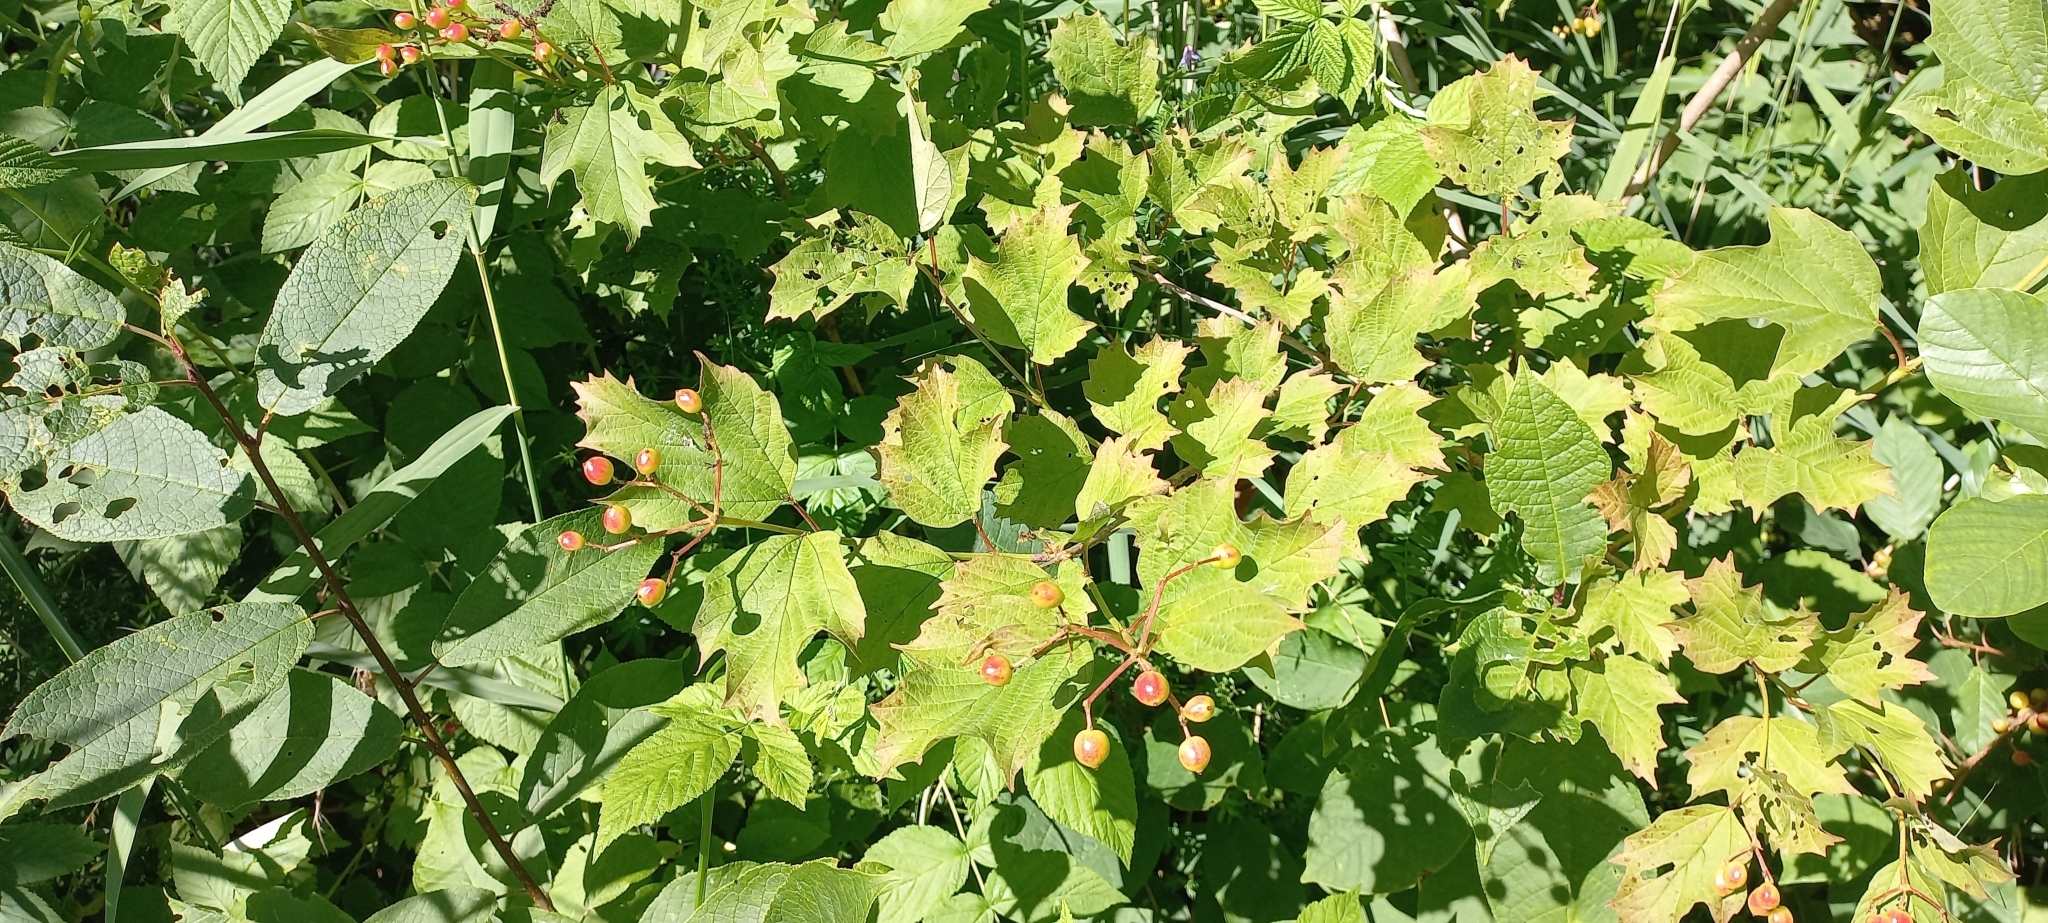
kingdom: Plantae
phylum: Tracheophyta
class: Magnoliopsida
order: Dipsacales
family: Viburnaceae
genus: Viburnum
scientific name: Viburnum opulus
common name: Guelder-rose
